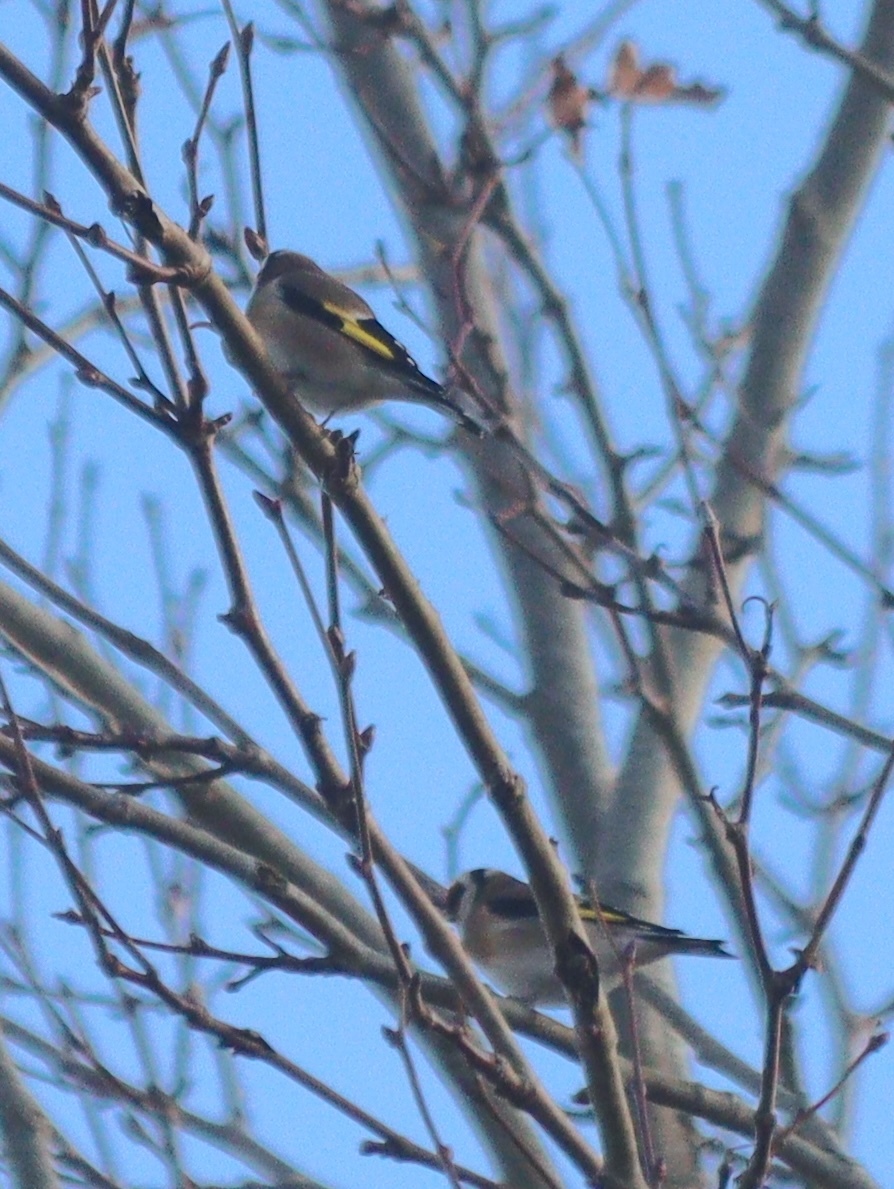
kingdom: Animalia
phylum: Chordata
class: Aves
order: Passeriformes
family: Fringillidae
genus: Carduelis
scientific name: Carduelis carduelis
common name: European goldfinch
